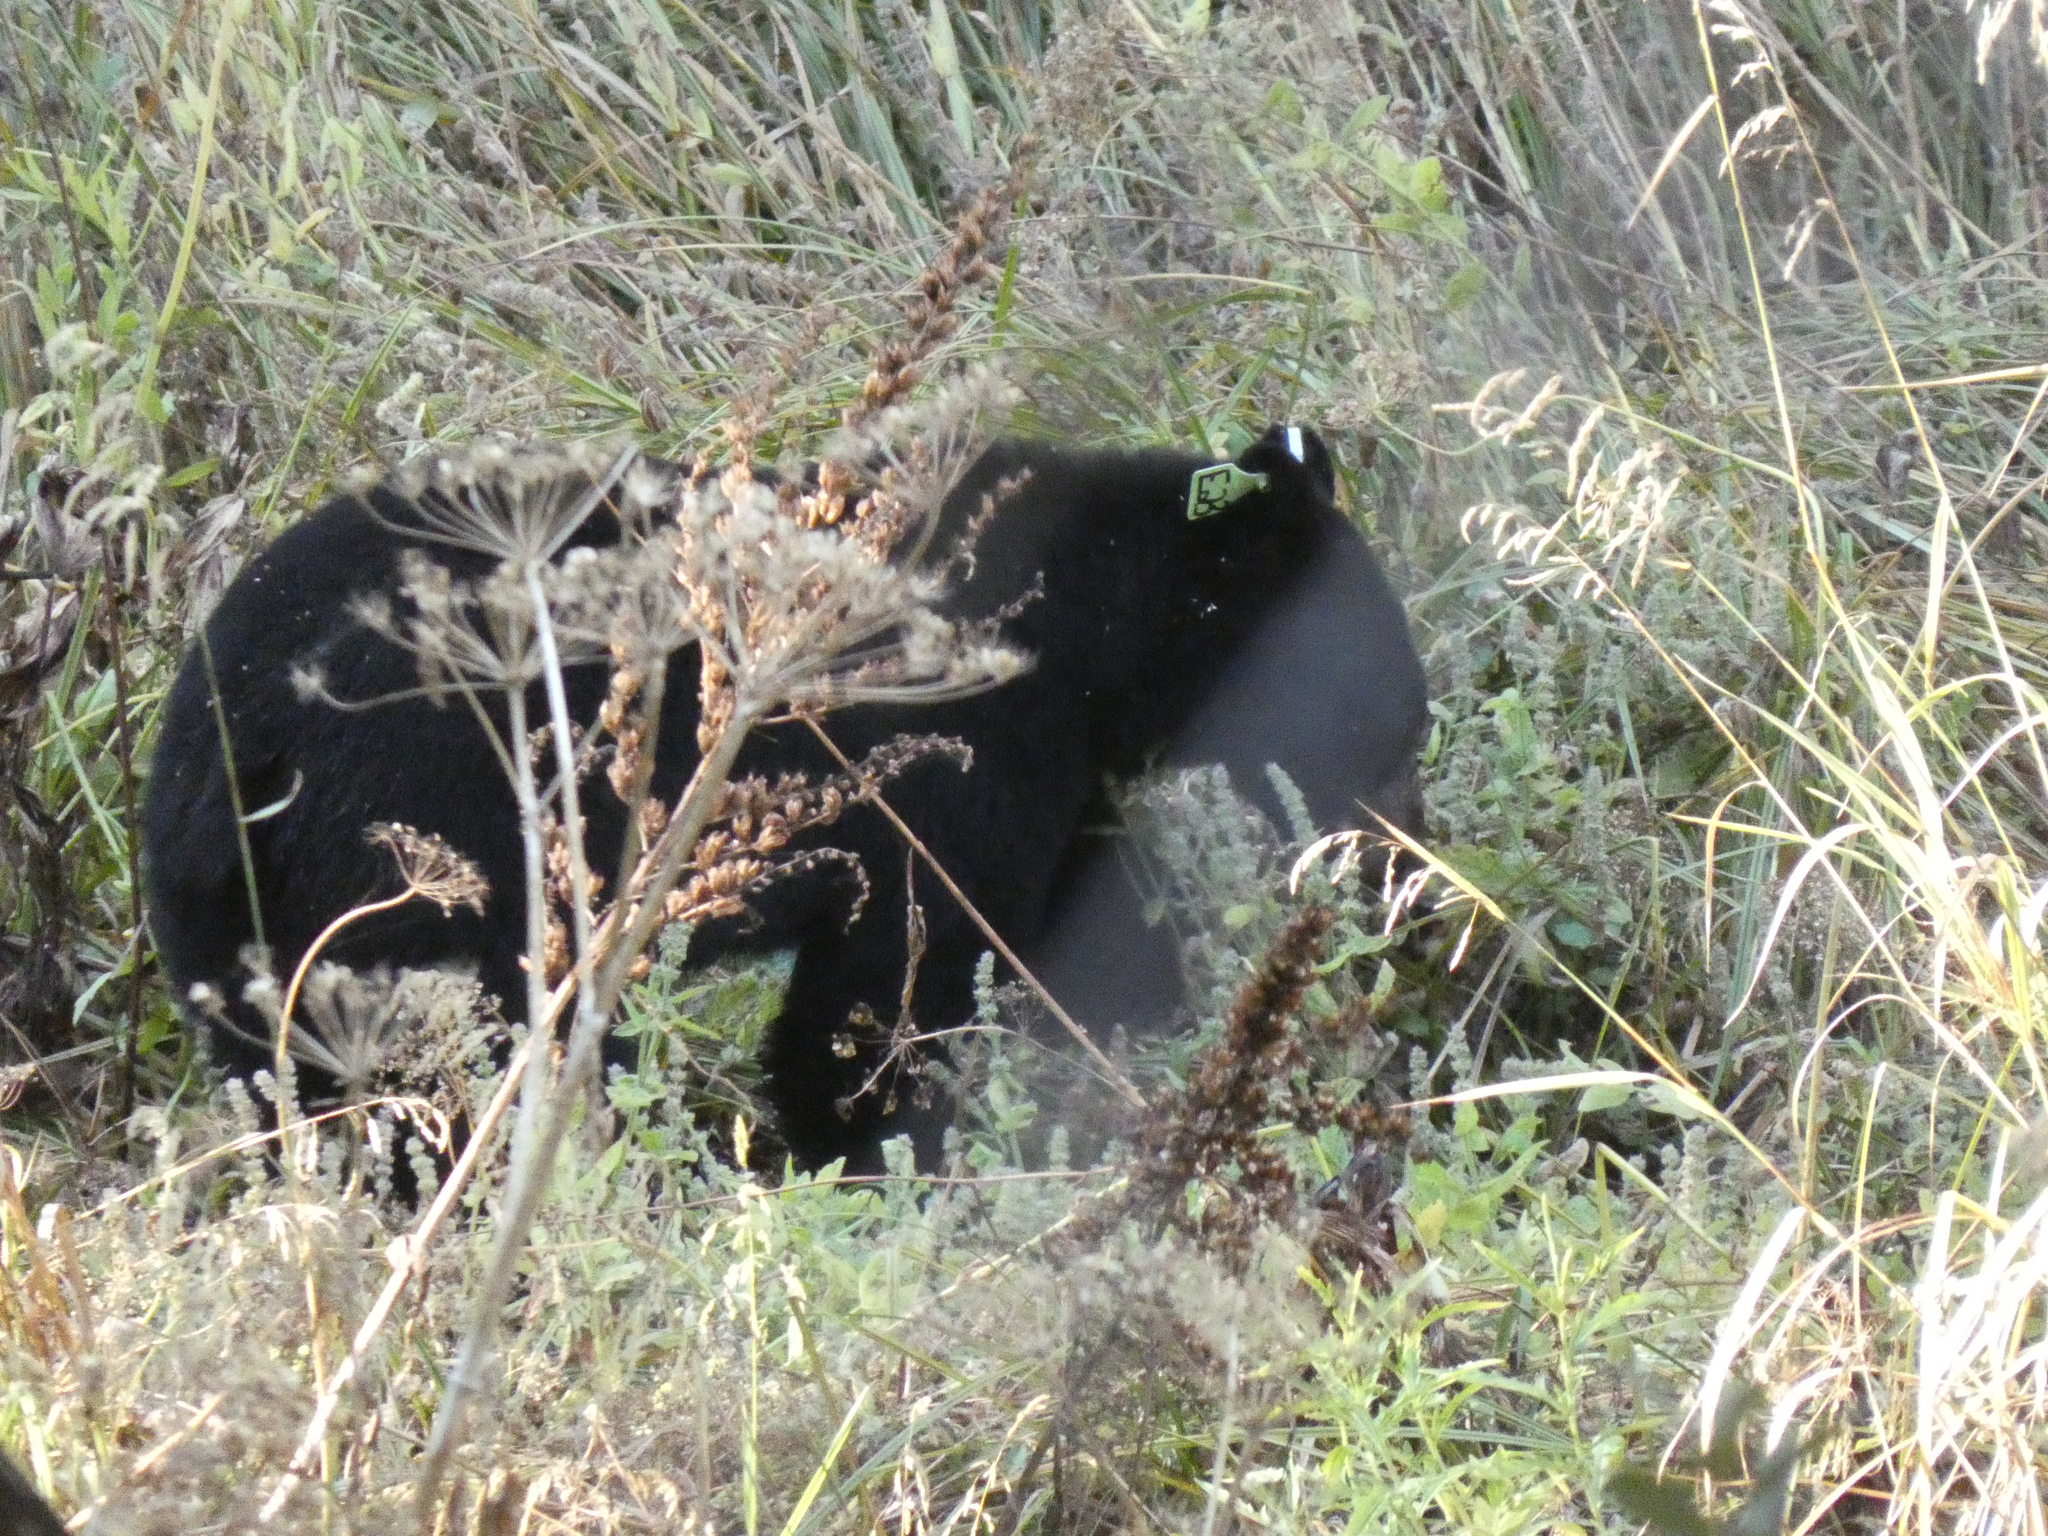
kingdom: Animalia
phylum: Chordata
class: Mammalia
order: Carnivora
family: Ursidae
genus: Ursus
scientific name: Ursus americanus
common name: American black bear
